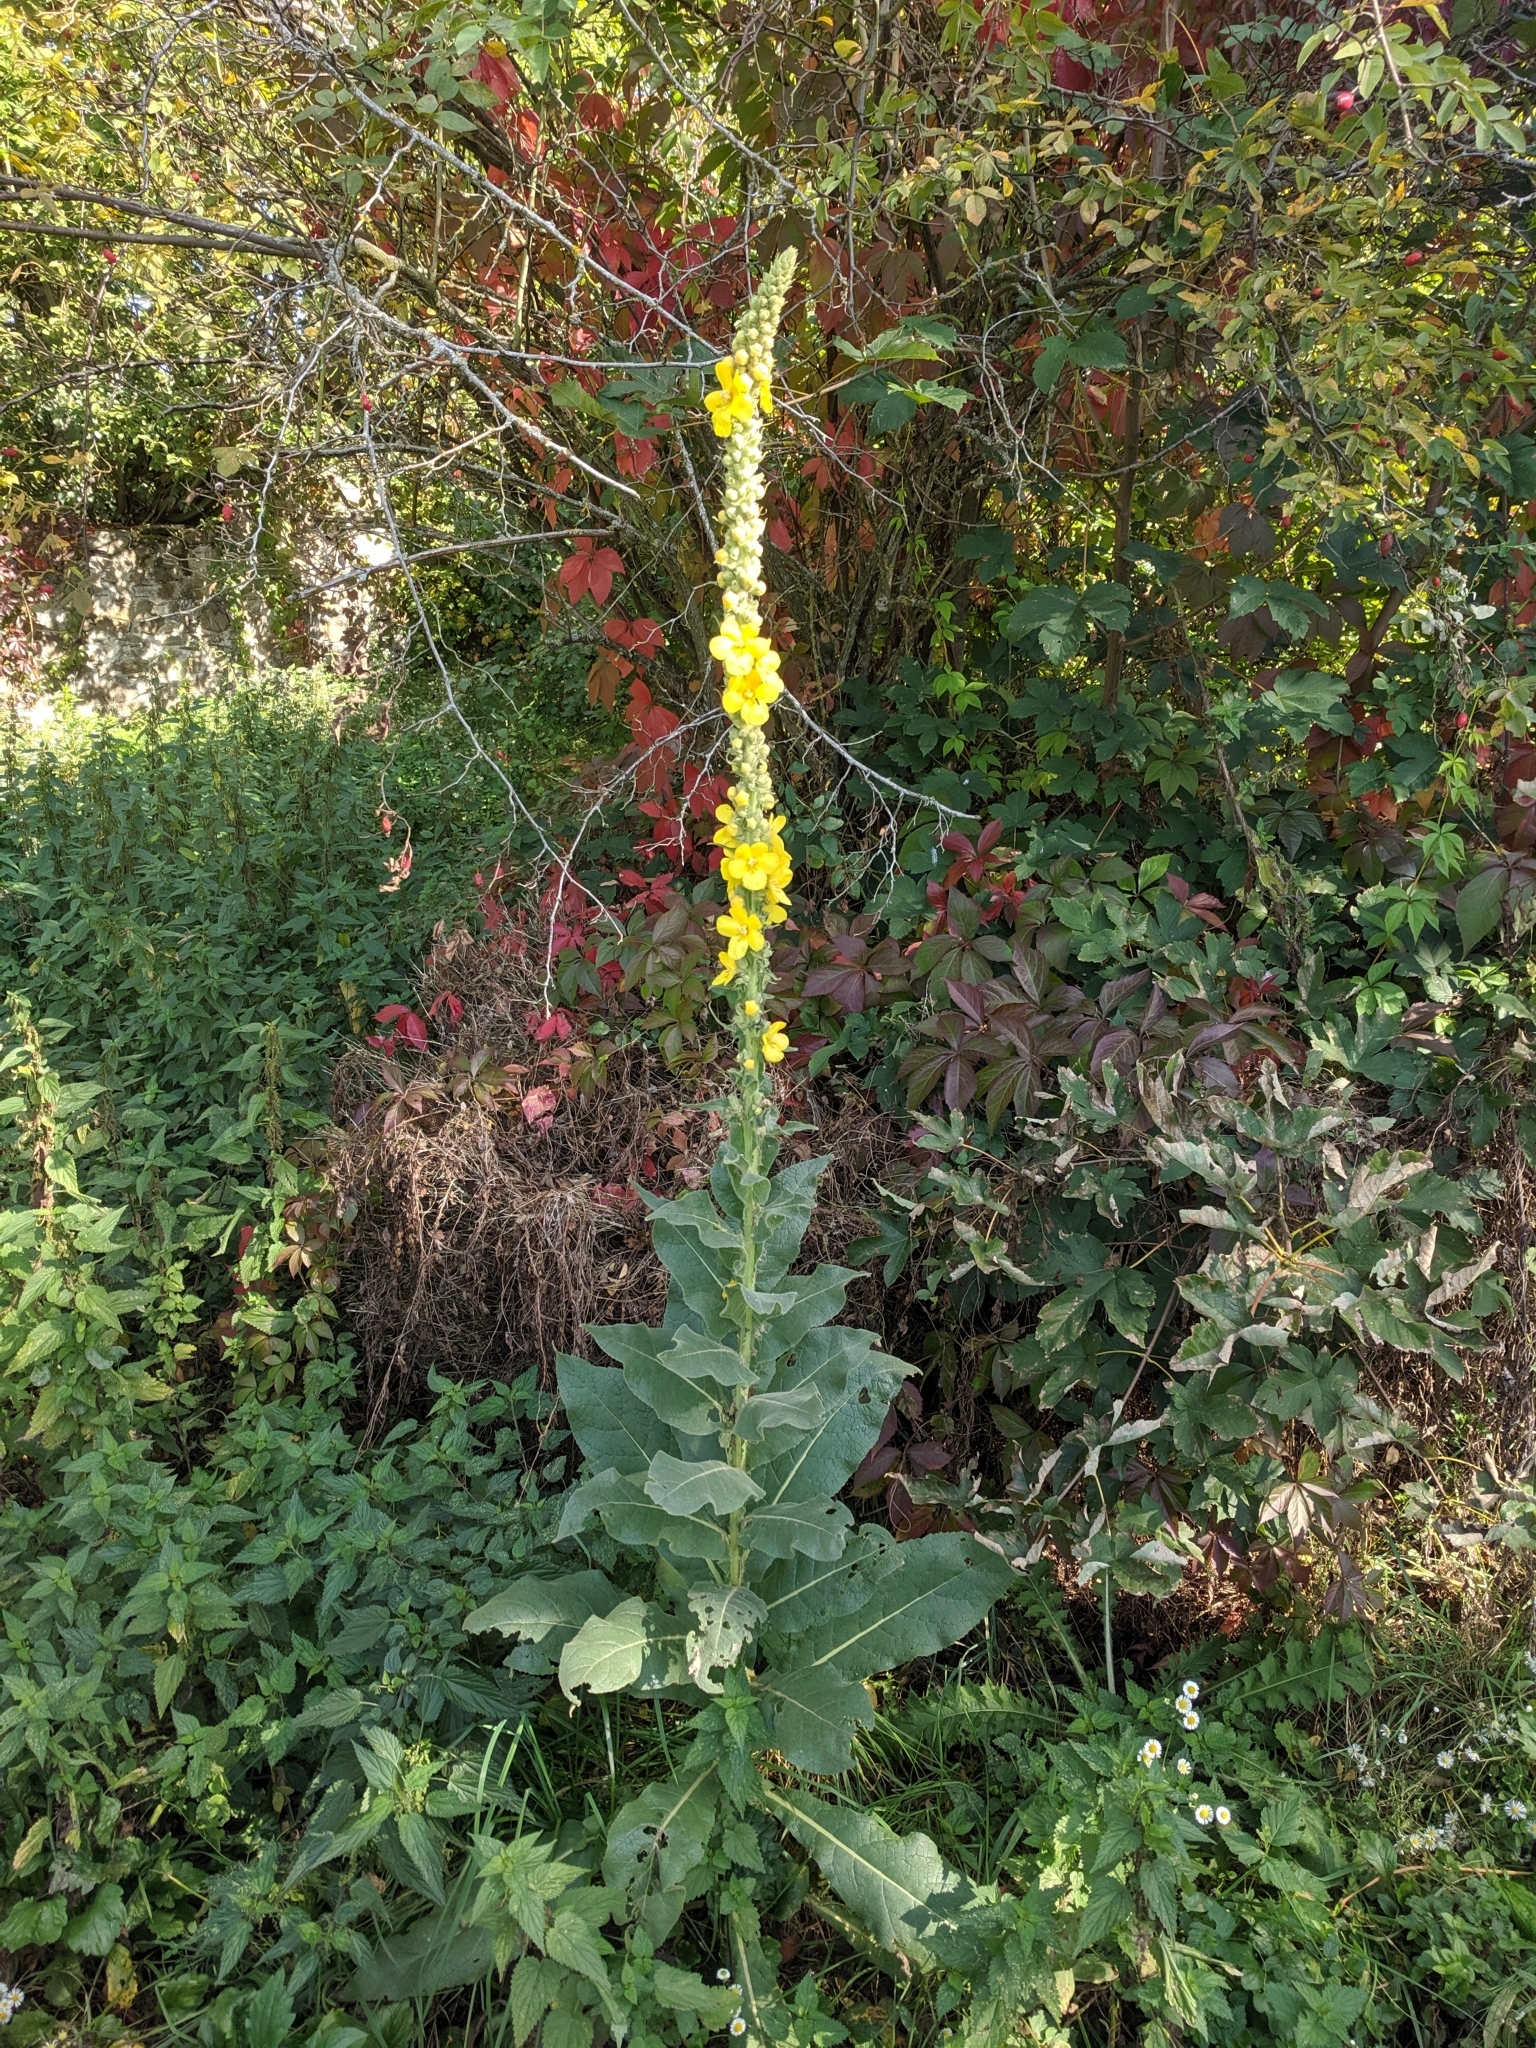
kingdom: Plantae
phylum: Tracheophyta
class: Magnoliopsida
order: Lamiales
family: Scrophulariaceae
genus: Verbascum
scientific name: Verbascum densiflorum
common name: Dense-flowered mullein
